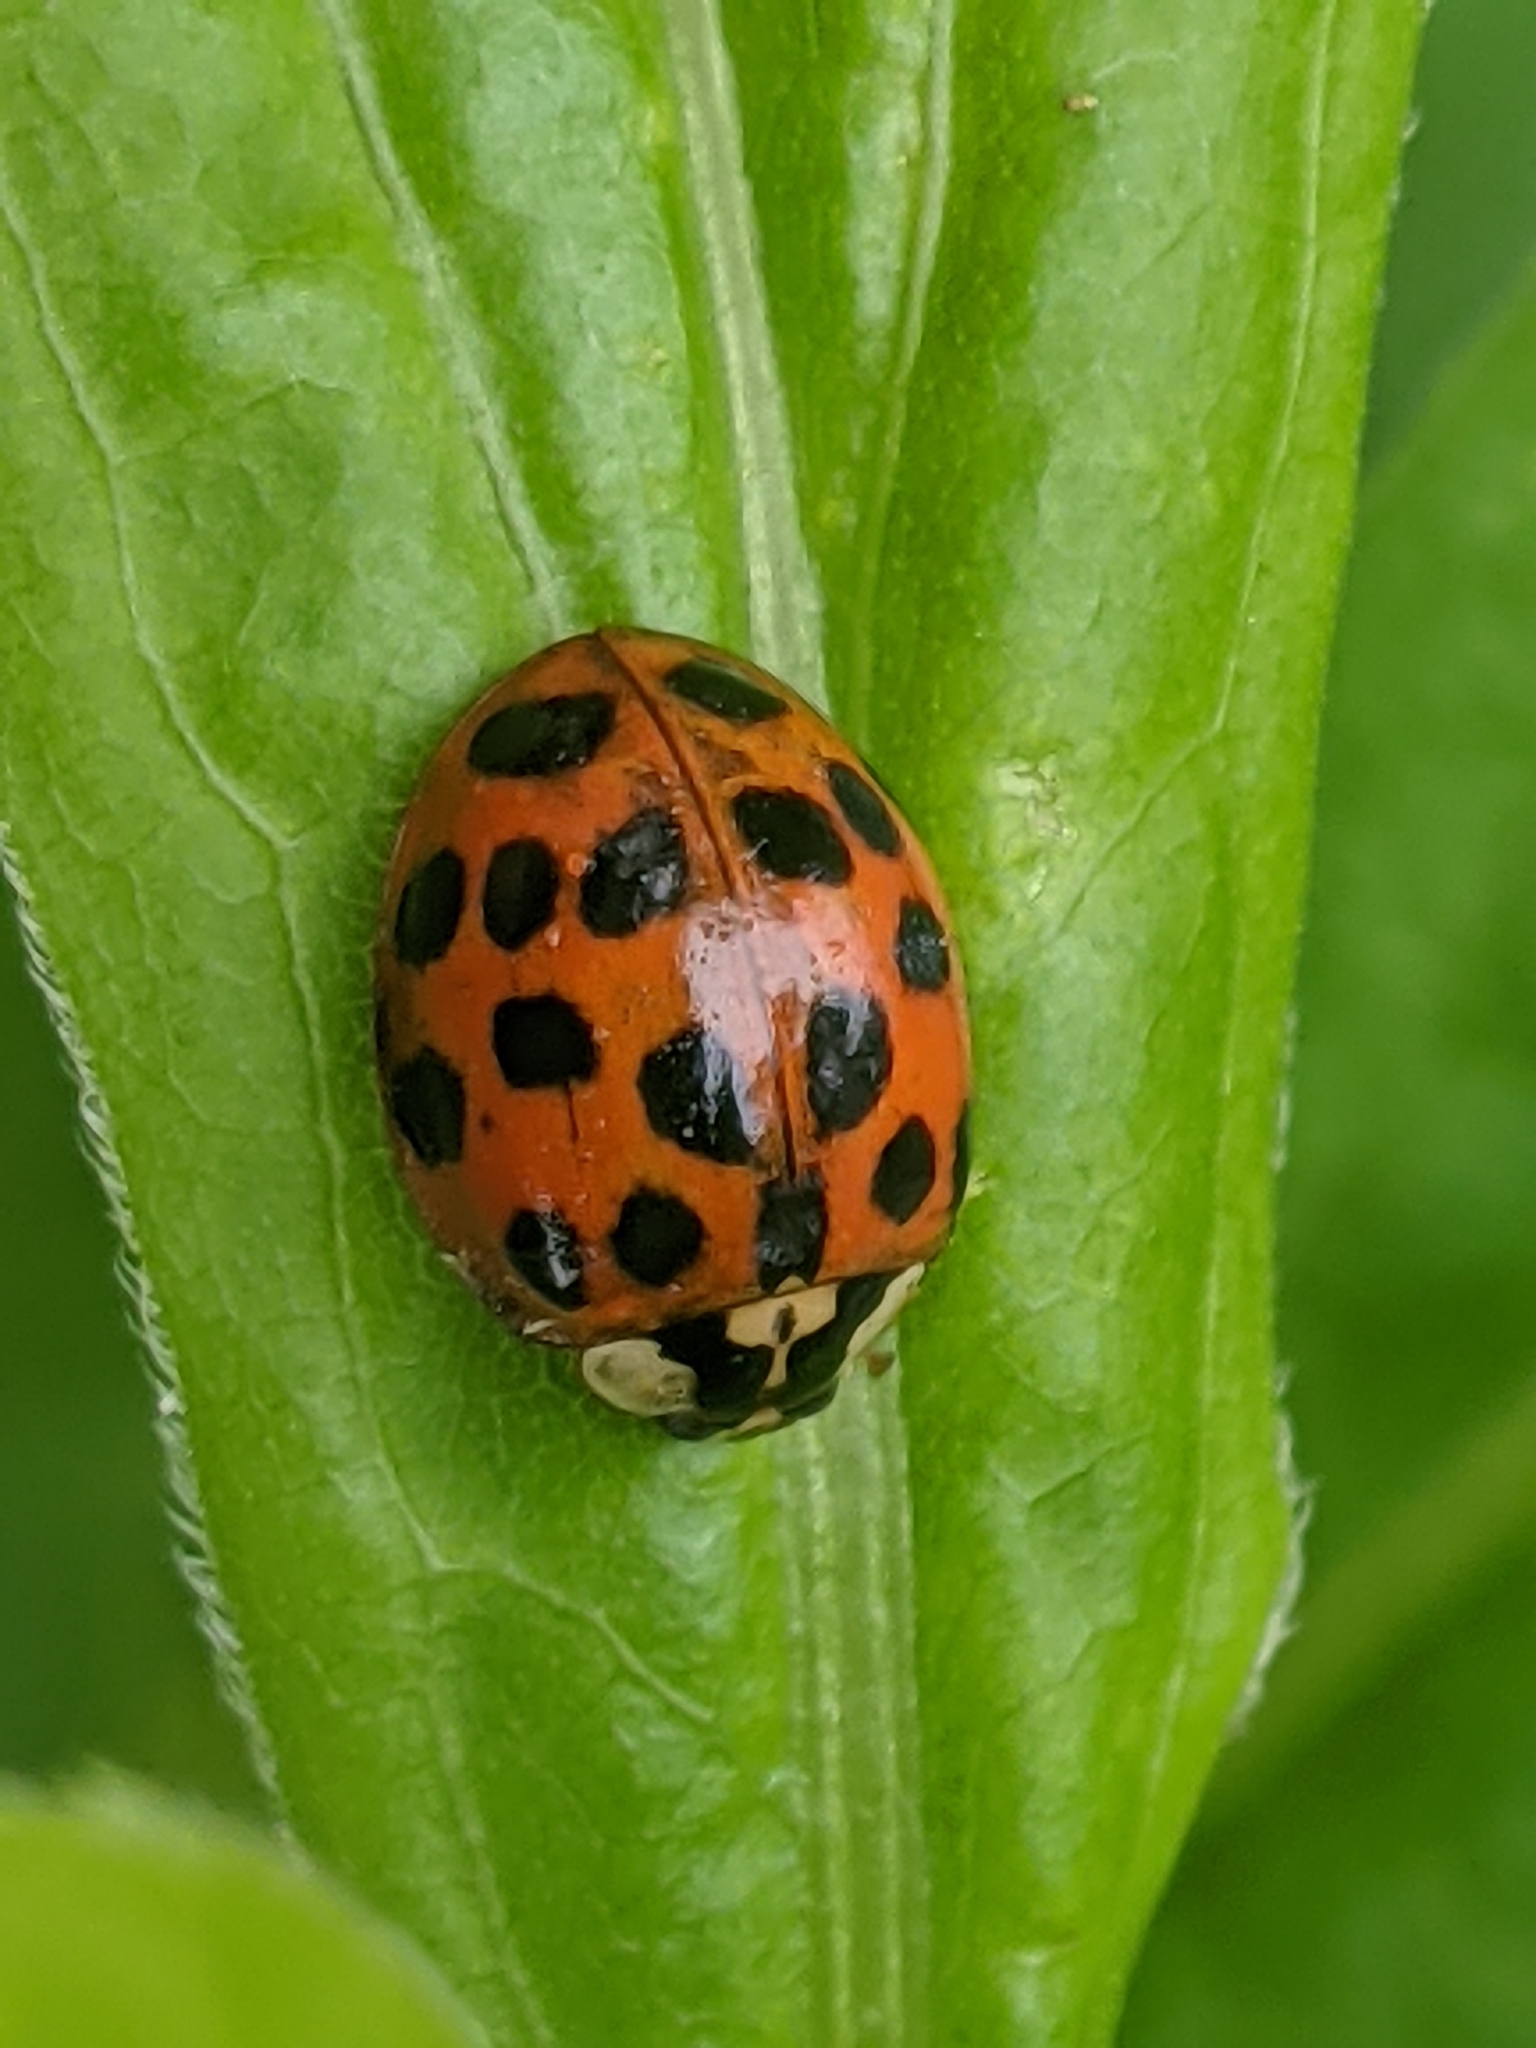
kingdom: Animalia
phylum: Arthropoda
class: Insecta
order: Coleoptera
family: Coccinellidae
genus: Harmonia
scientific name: Harmonia axyridis
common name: Harlequin ladybird
